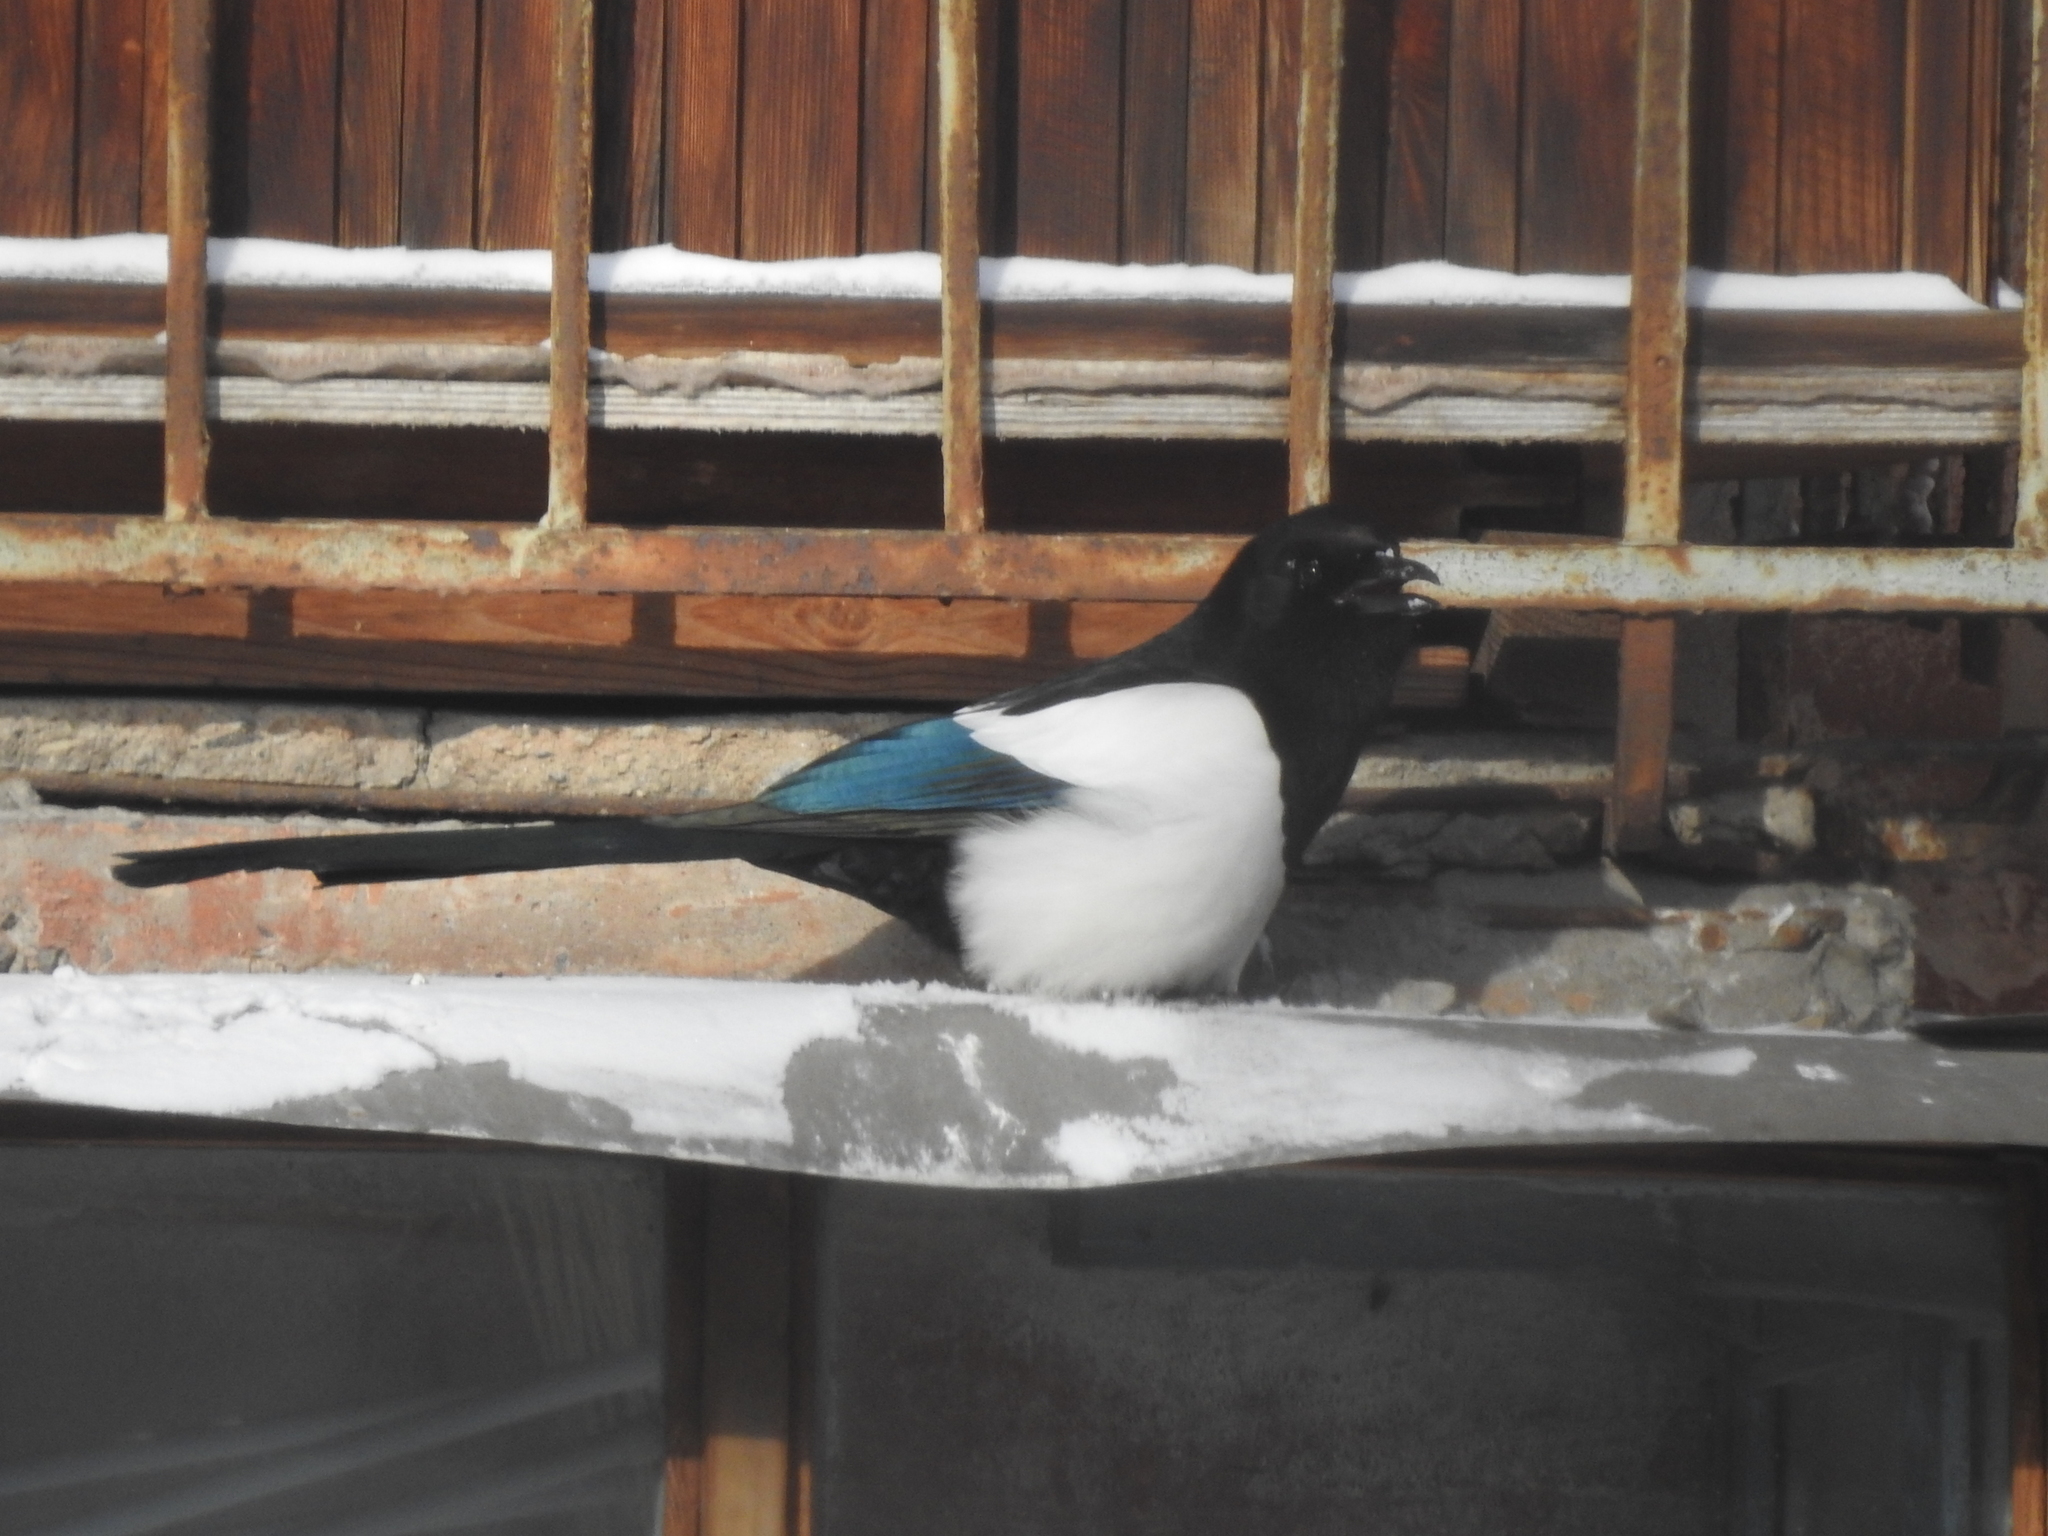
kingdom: Animalia
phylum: Chordata
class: Aves
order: Passeriformes
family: Corvidae
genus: Pica
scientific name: Pica pica
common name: Eurasian magpie
